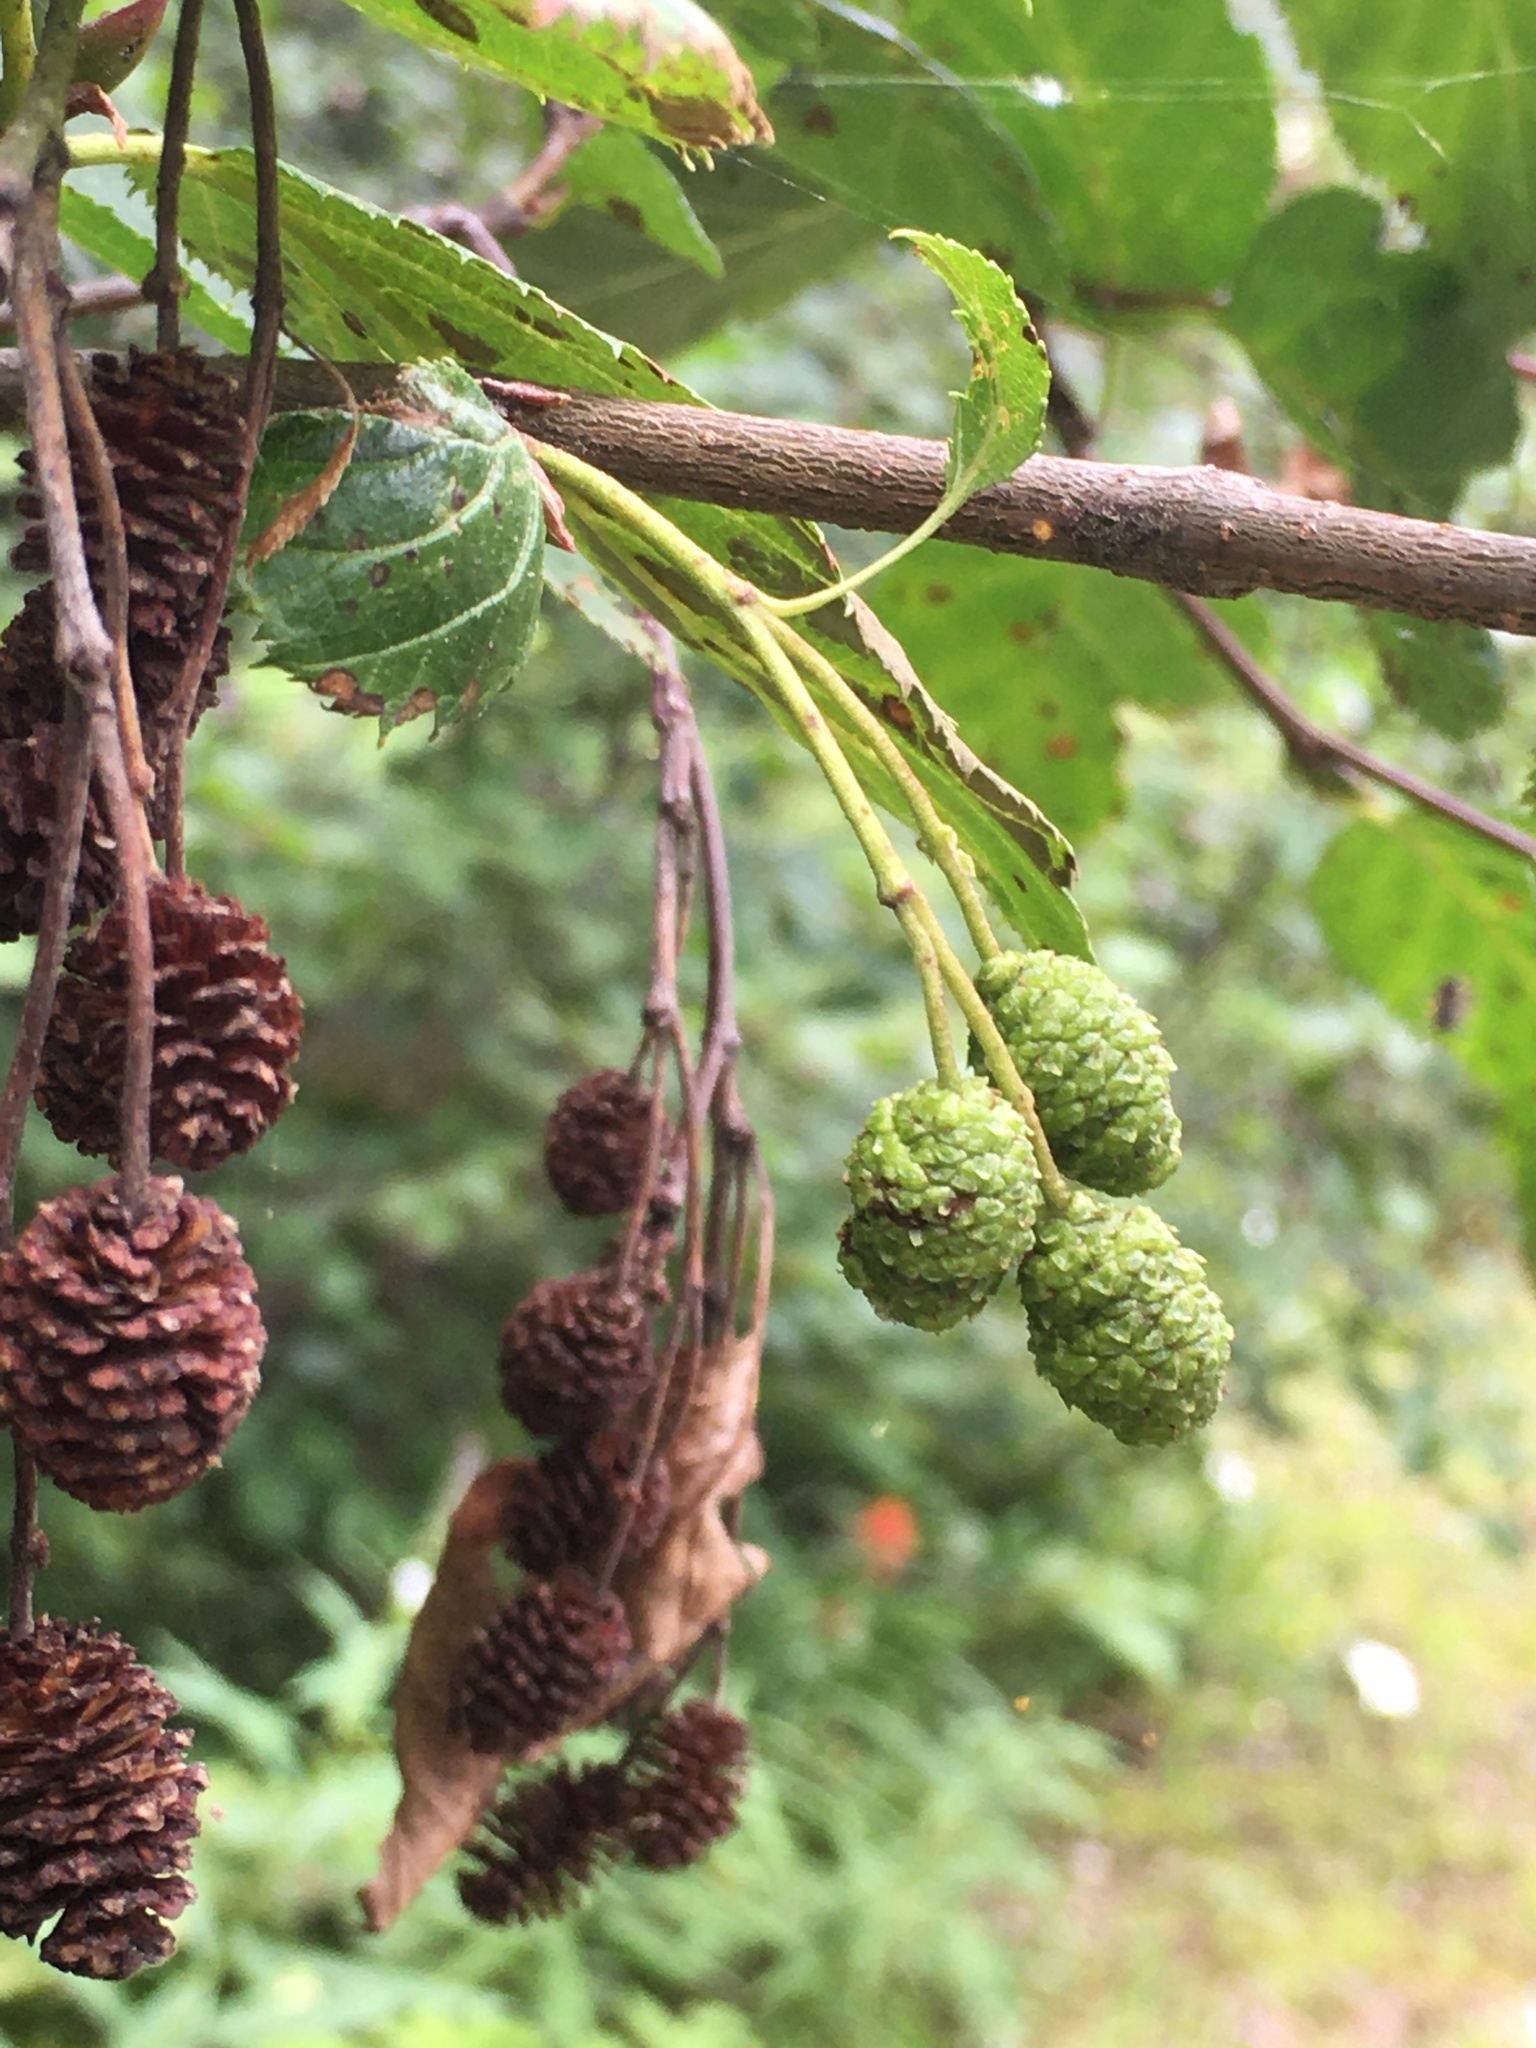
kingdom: Plantae
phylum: Tracheophyta
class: Magnoliopsida
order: Fagales
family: Betulaceae
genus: Alnus
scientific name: Alnus alnobetula
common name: Green alder
